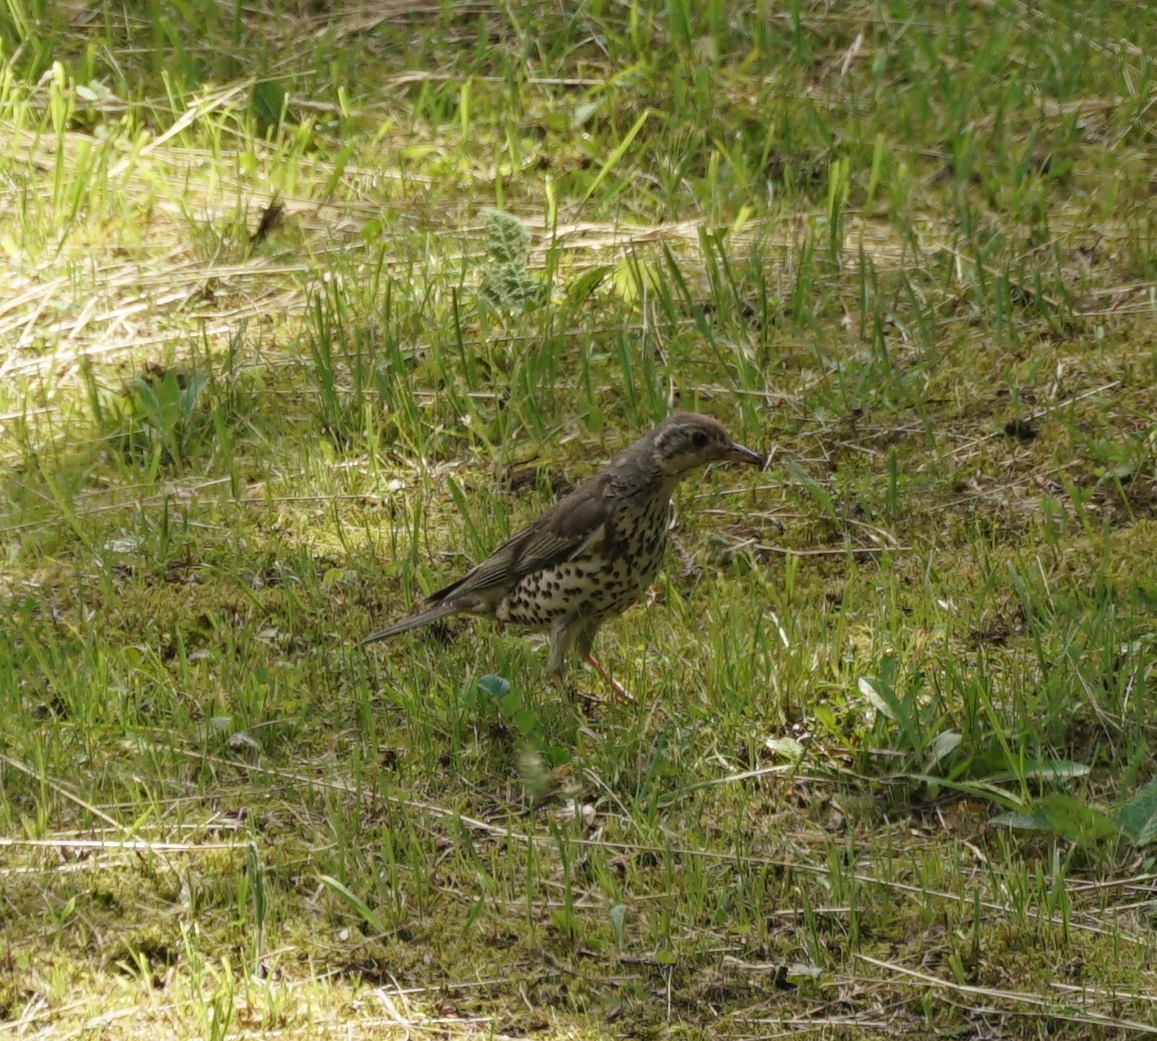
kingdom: Animalia
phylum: Chordata
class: Aves
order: Passeriformes
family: Turdidae
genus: Turdus
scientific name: Turdus viscivorus
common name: Mistle thrush
